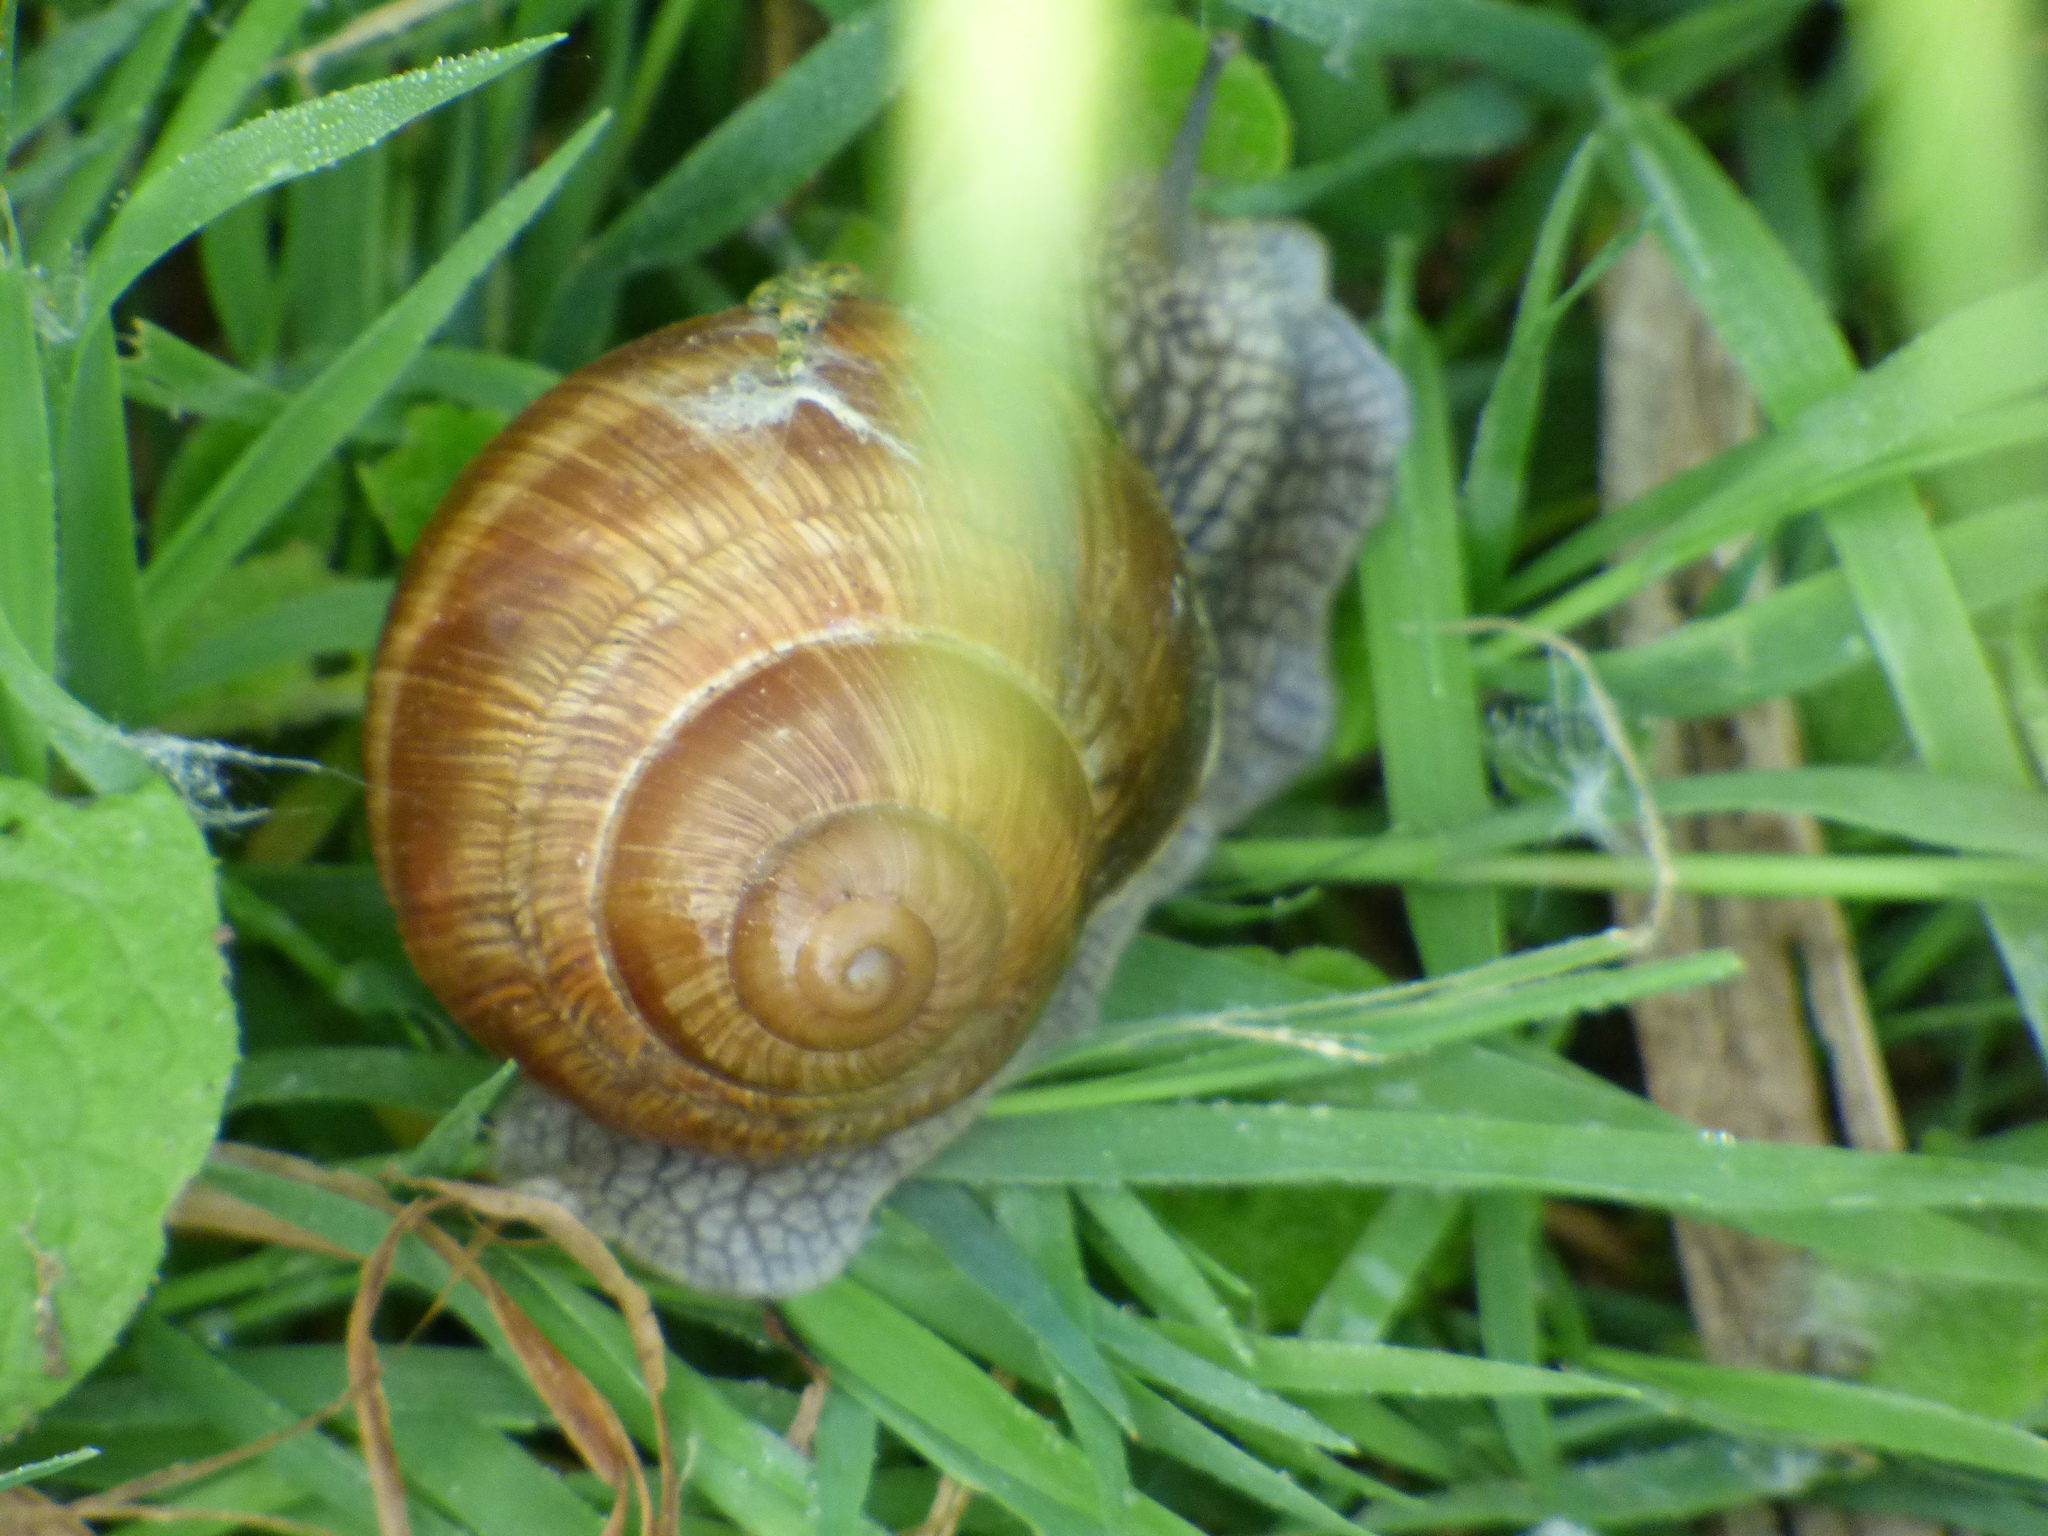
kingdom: Animalia
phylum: Mollusca
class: Gastropoda
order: Stylommatophora
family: Helicidae
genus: Helix
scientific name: Helix pomatia
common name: Roman snail
